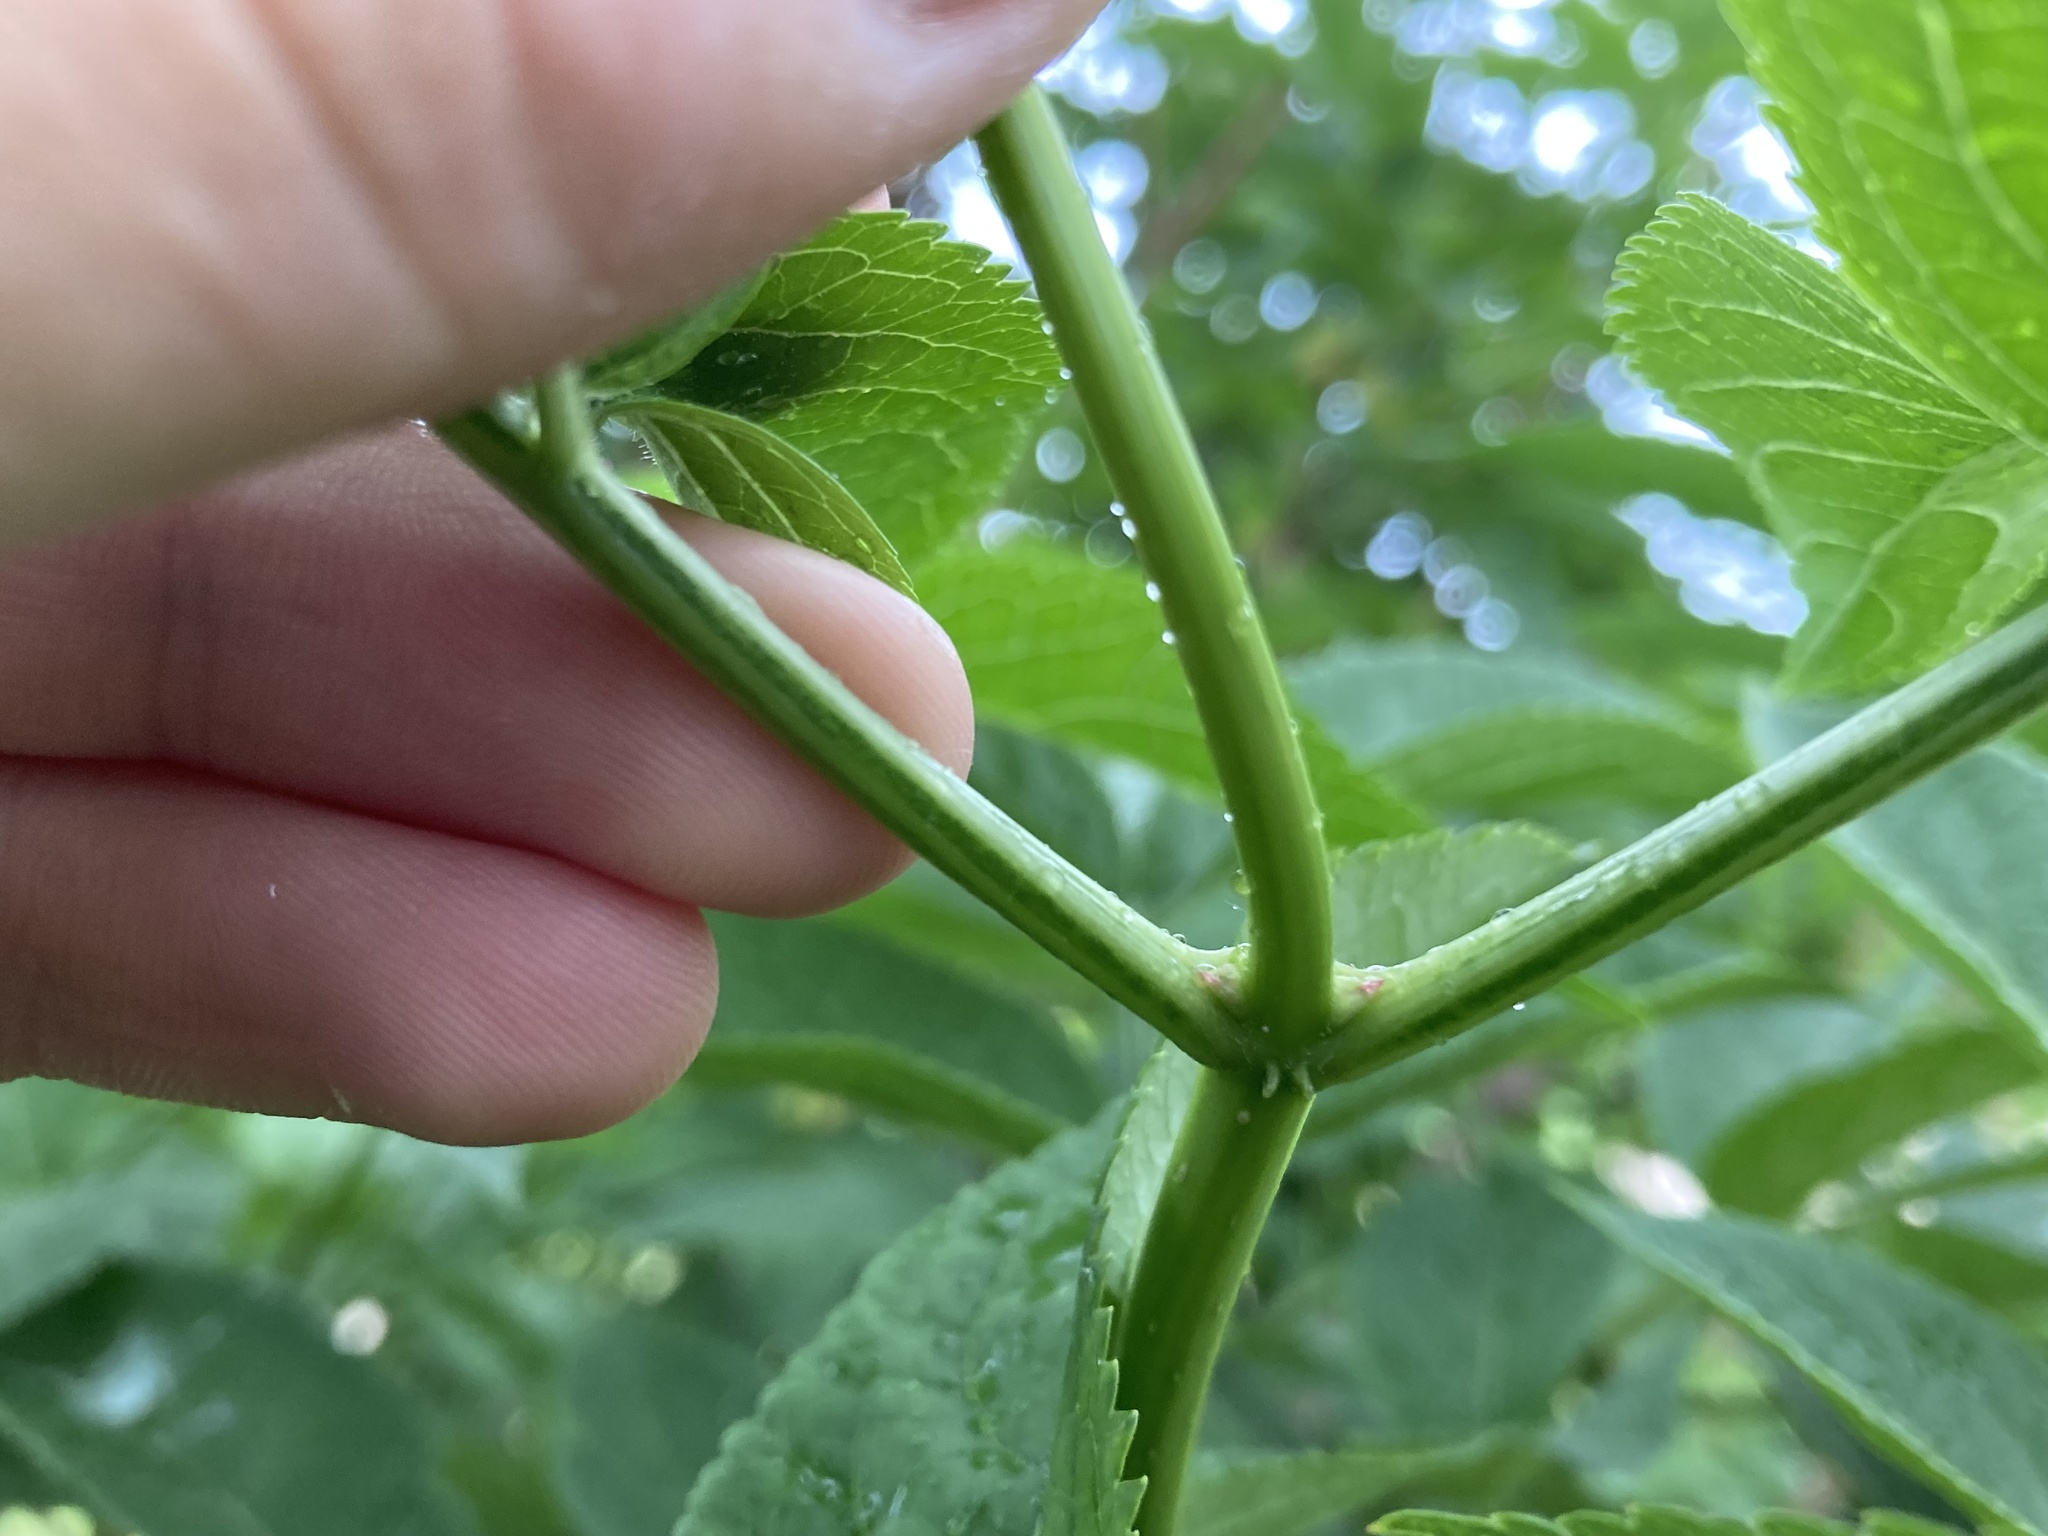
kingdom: Plantae
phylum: Tracheophyta
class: Magnoliopsida
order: Dipsacales
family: Viburnaceae
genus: Sambucus
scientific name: Sambucus nigra
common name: Elder
